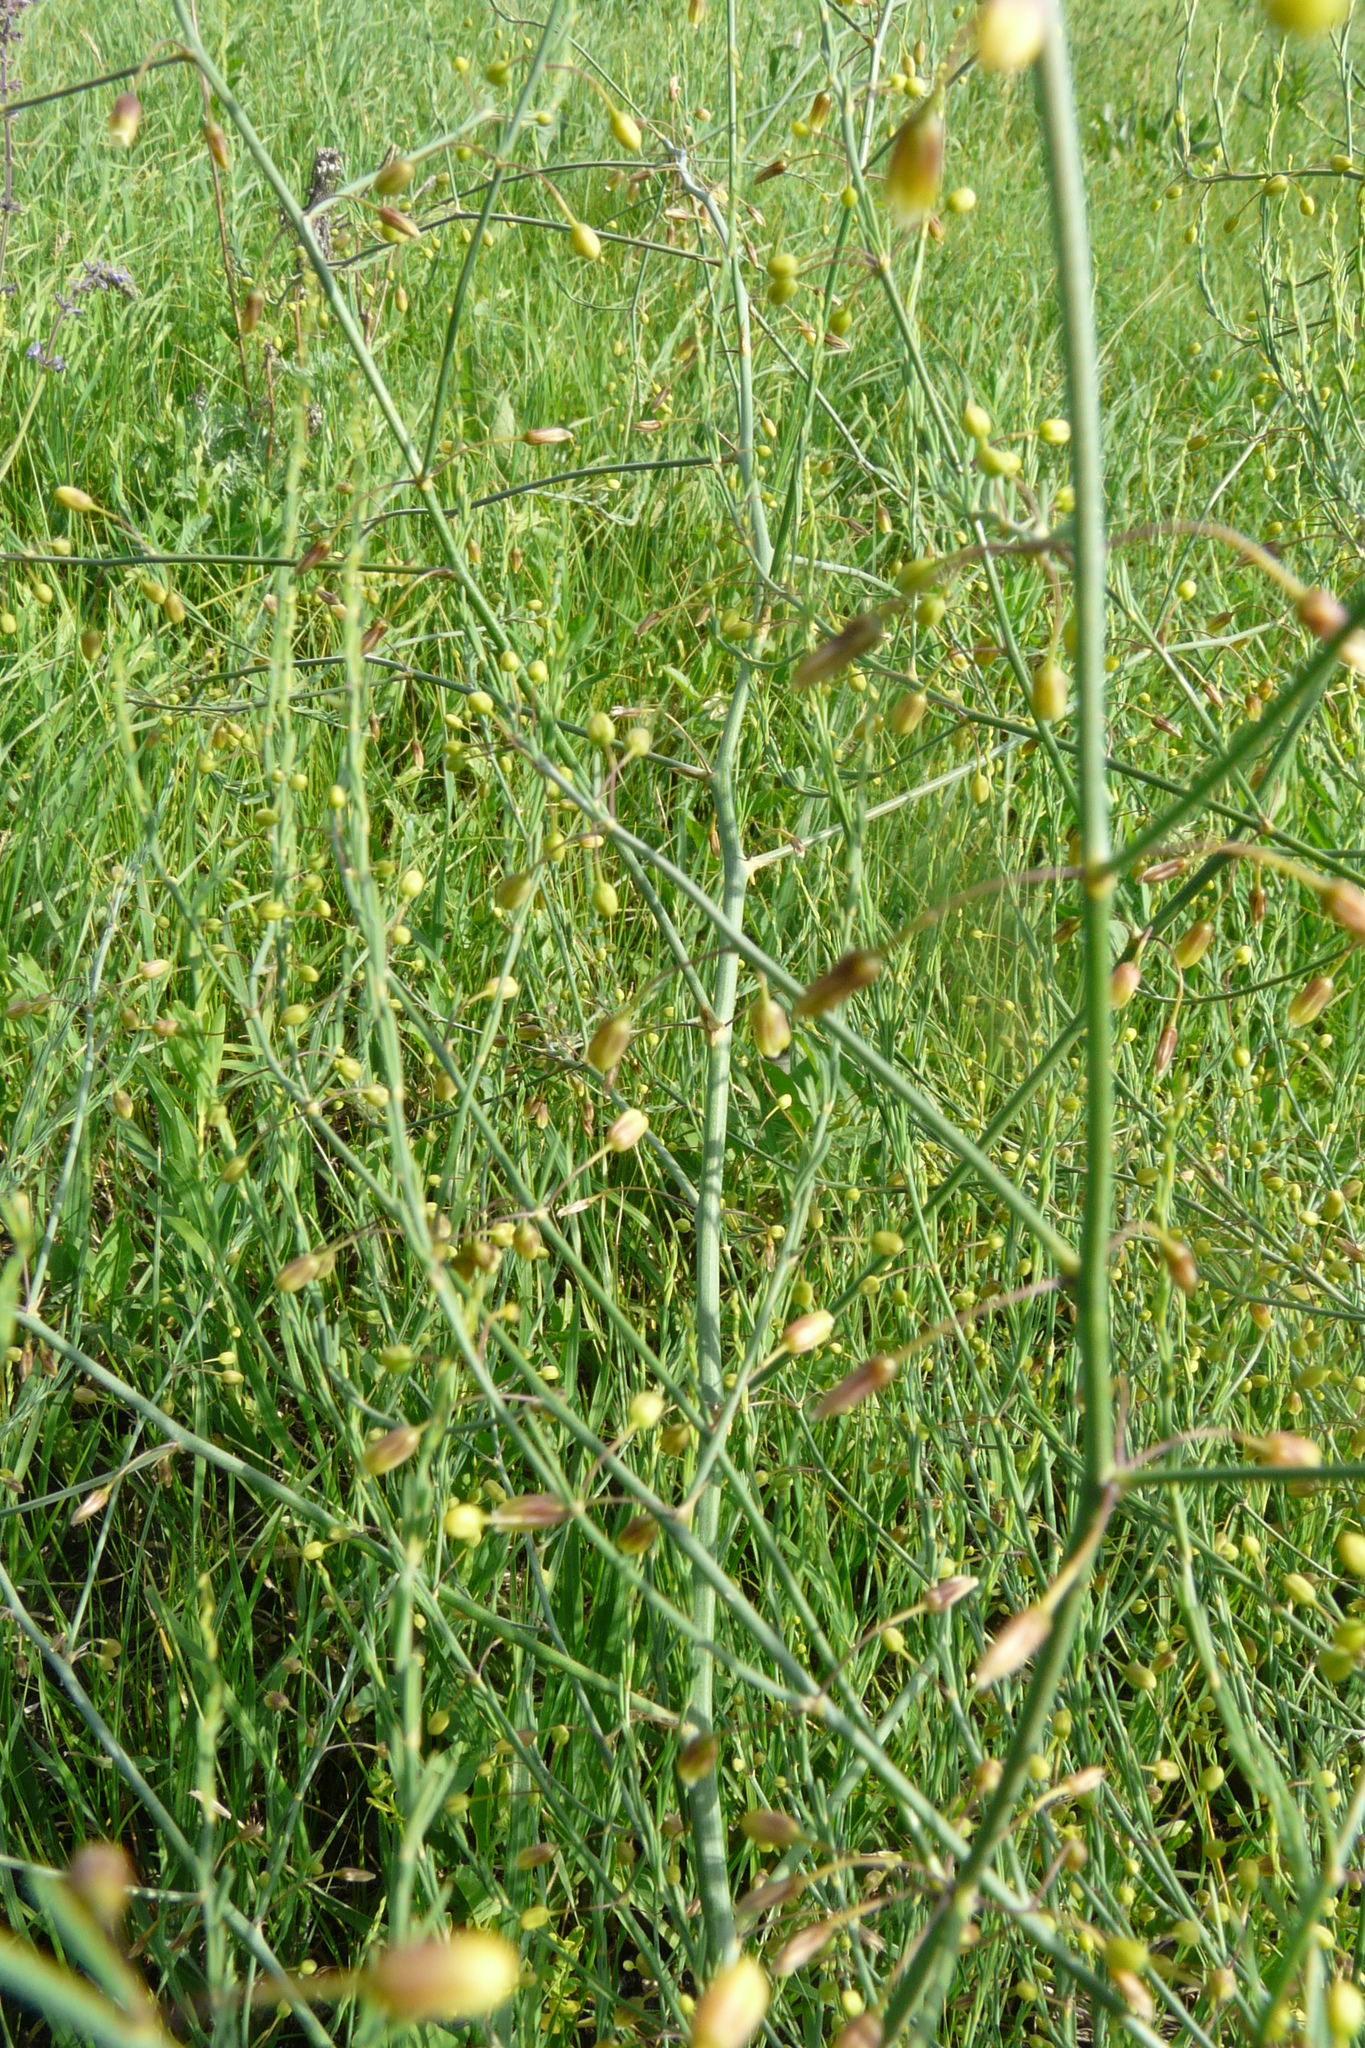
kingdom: Plantae
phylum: Tracheophyta
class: Liliopsida
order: Asparagales
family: Asparagaceae
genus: Asparagus
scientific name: Asparagus officinalis
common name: Garden asparagus
